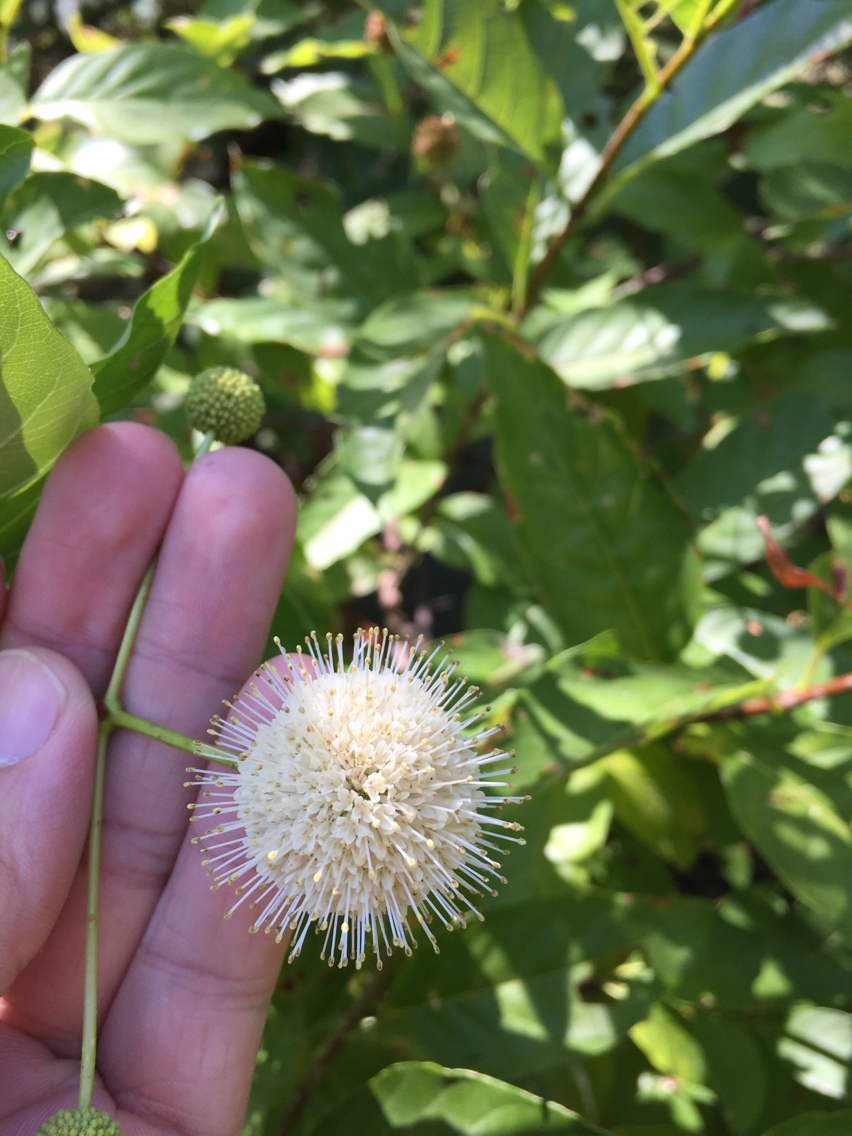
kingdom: Plantae
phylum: Tracheophyta
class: Magnoliopsida
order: Gentianales
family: Rubiaceae
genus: Cephalanthus
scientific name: Cephalanthus occidentalis
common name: Button-willow
